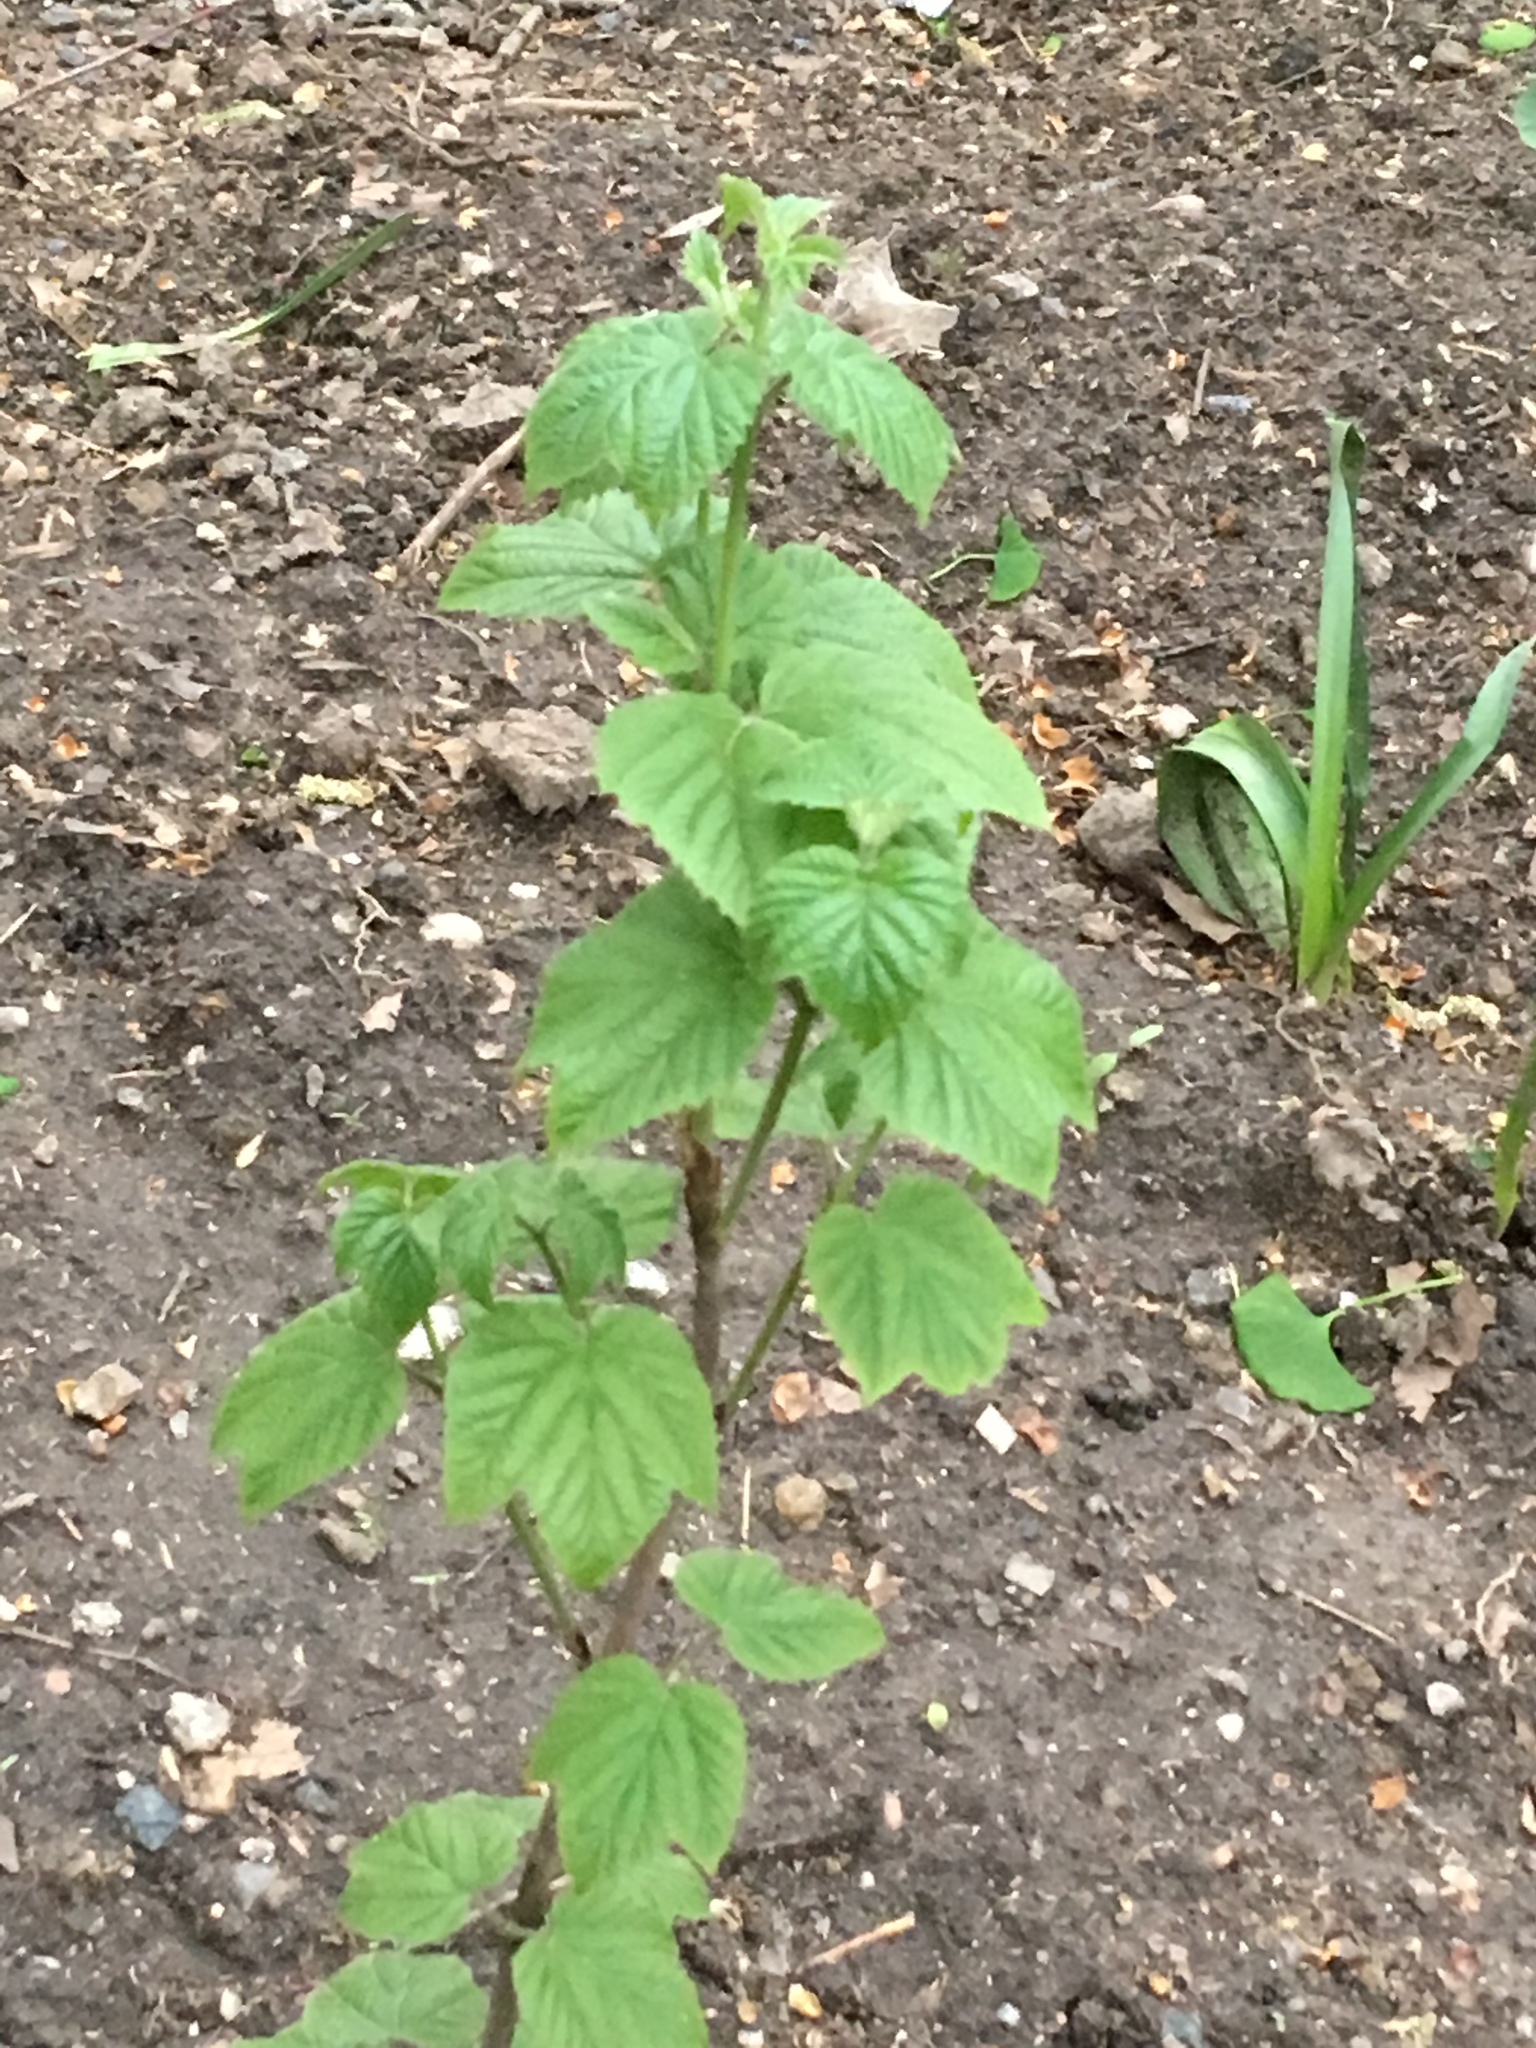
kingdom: Plantae
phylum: Tracheophyta
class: Magnoliopsida
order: Dipsacales
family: Viburnaceae
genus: Viburnum
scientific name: Viburnum acerifolium
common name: Dockmackie
